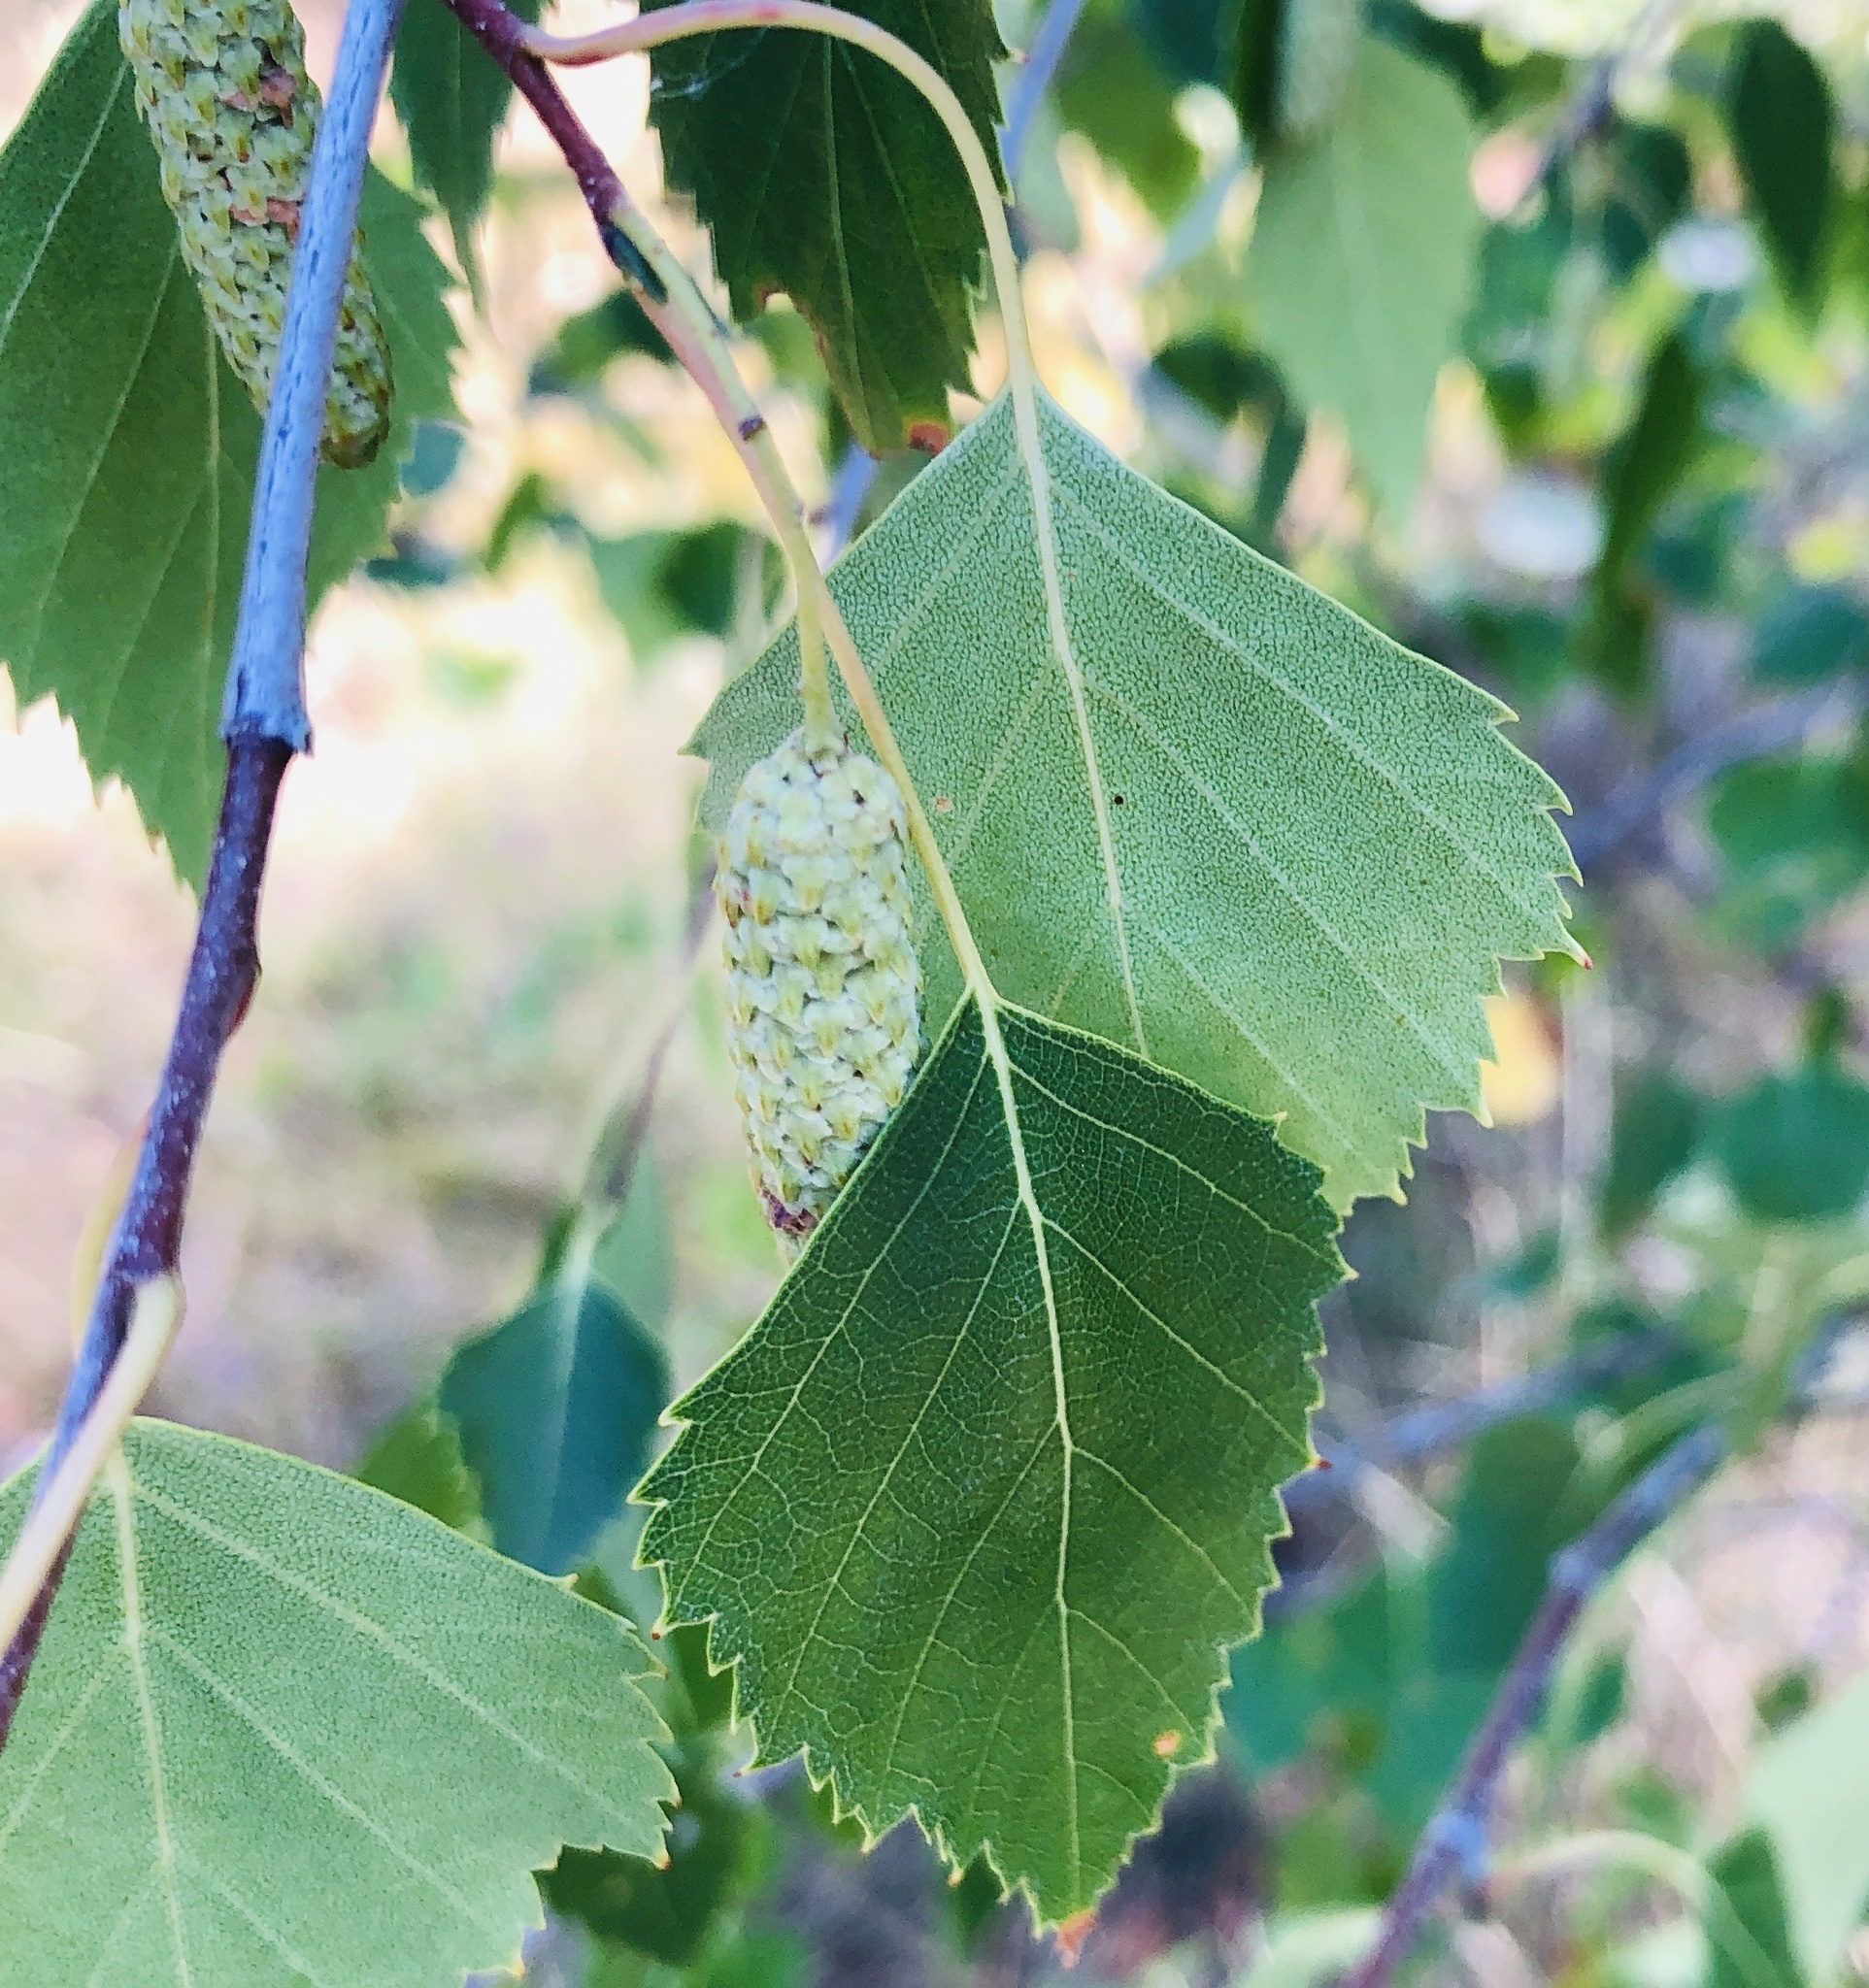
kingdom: Plantae
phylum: Tracheophyta
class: Magnoliopsida
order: Fagales
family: Betulaceae
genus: Betula
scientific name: Betula pendula
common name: Silver birch
